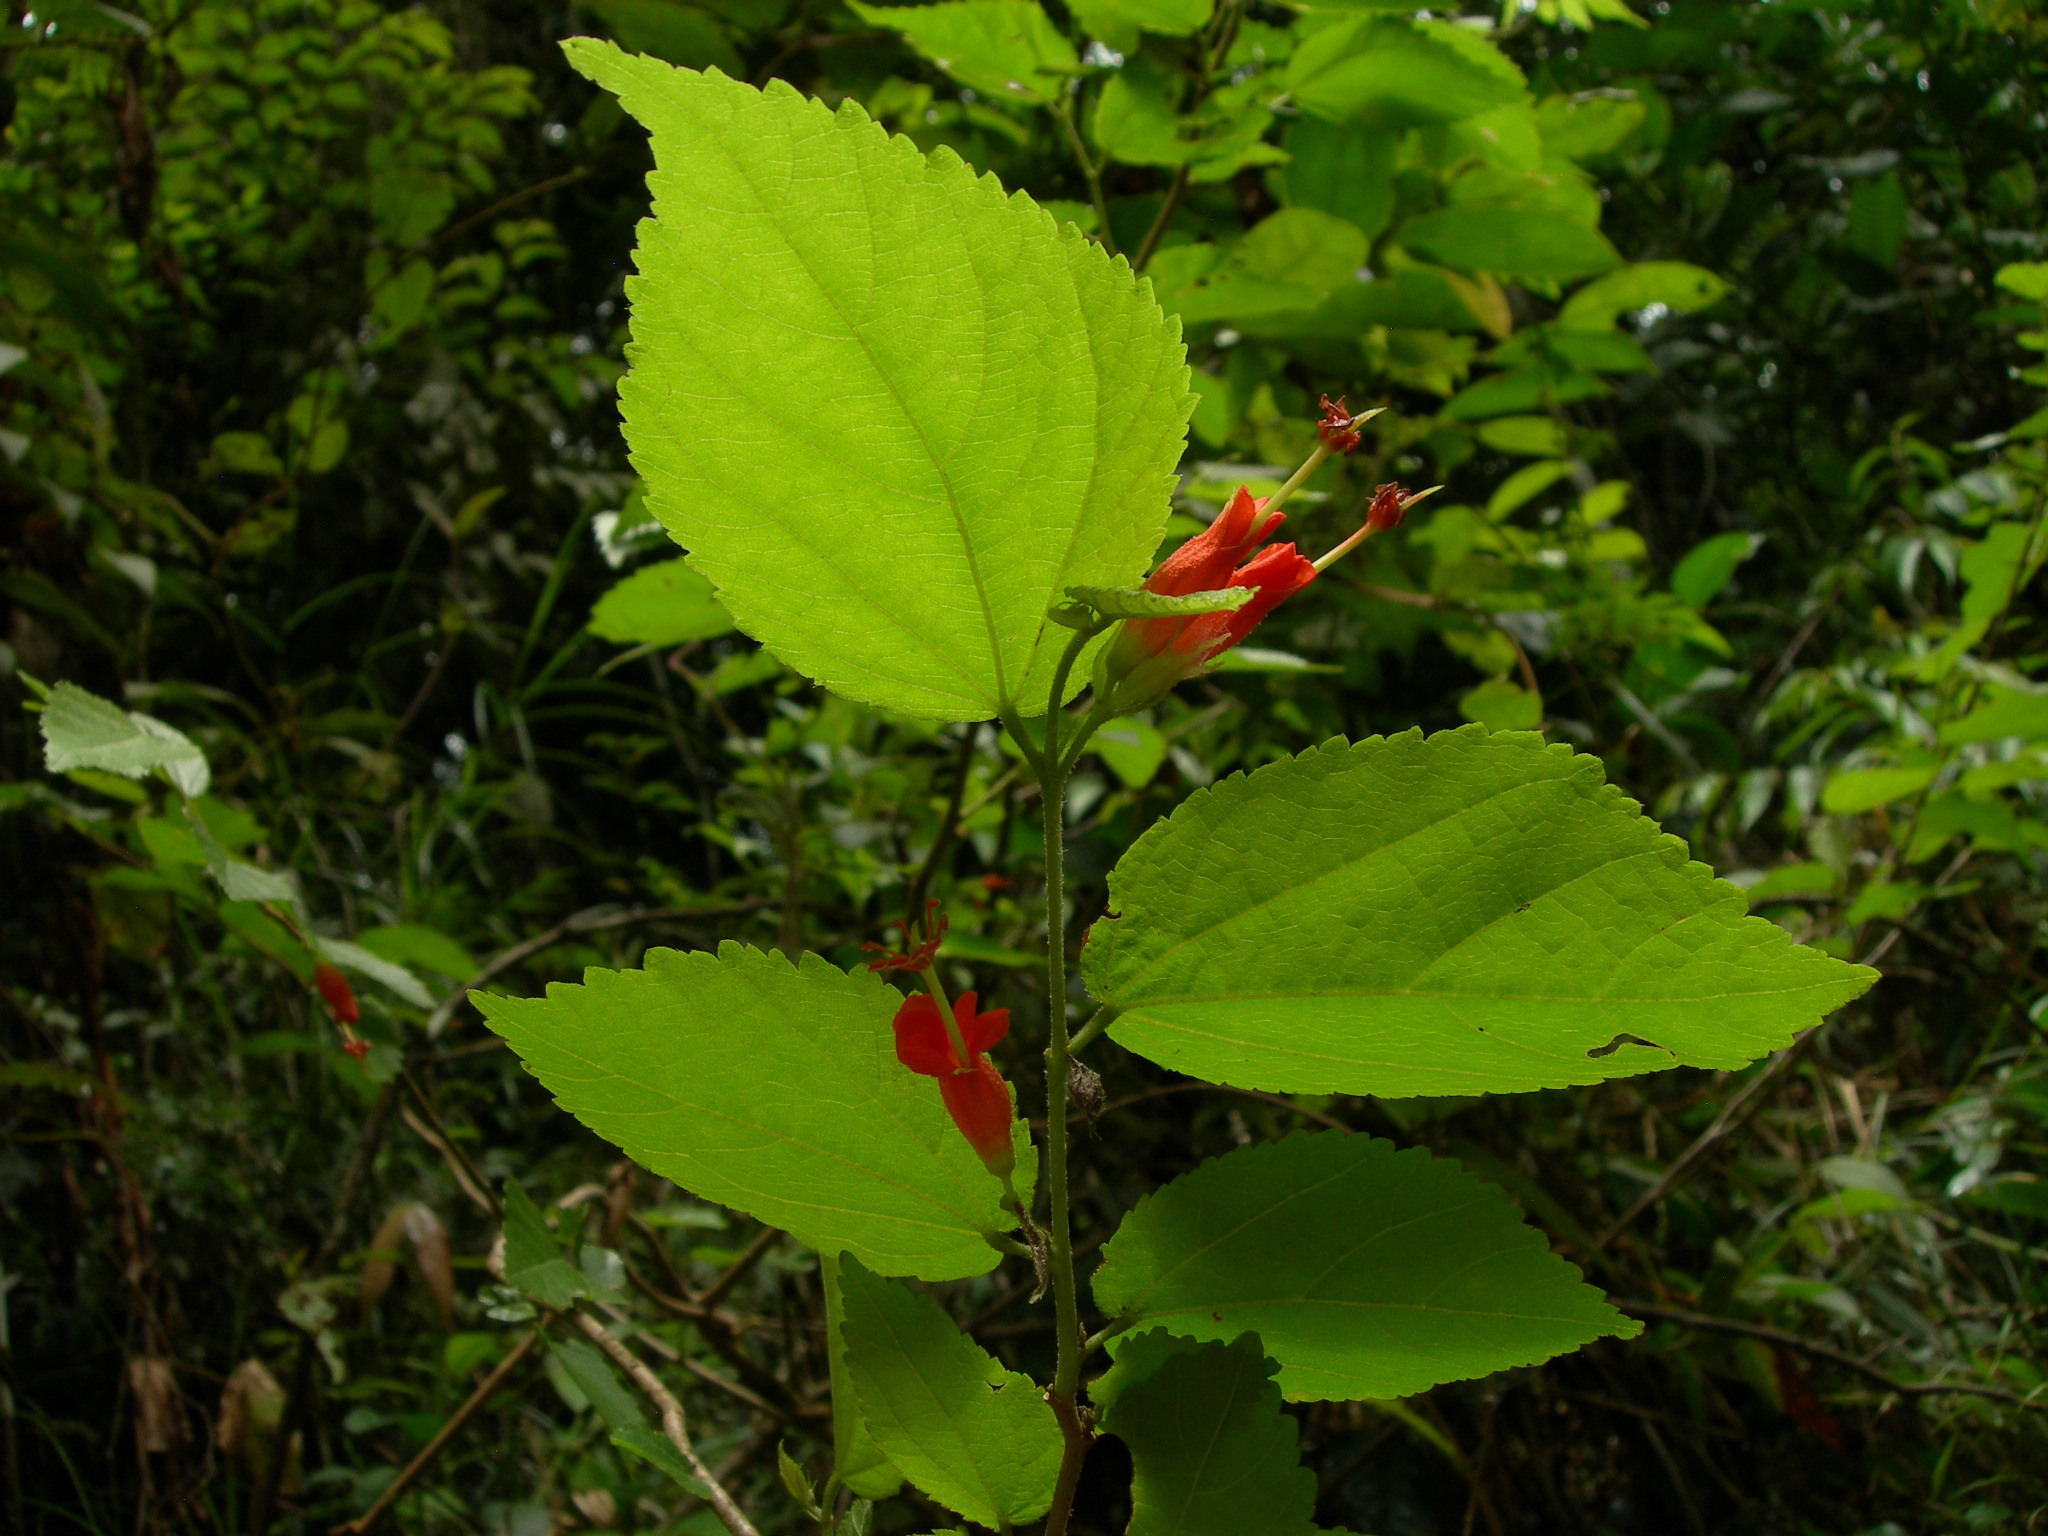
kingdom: Plantae
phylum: Tracheophyta
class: Magnoliopsida
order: Malvales
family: Malvaceae
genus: Helicteres
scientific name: Helicteres guazumifolia
